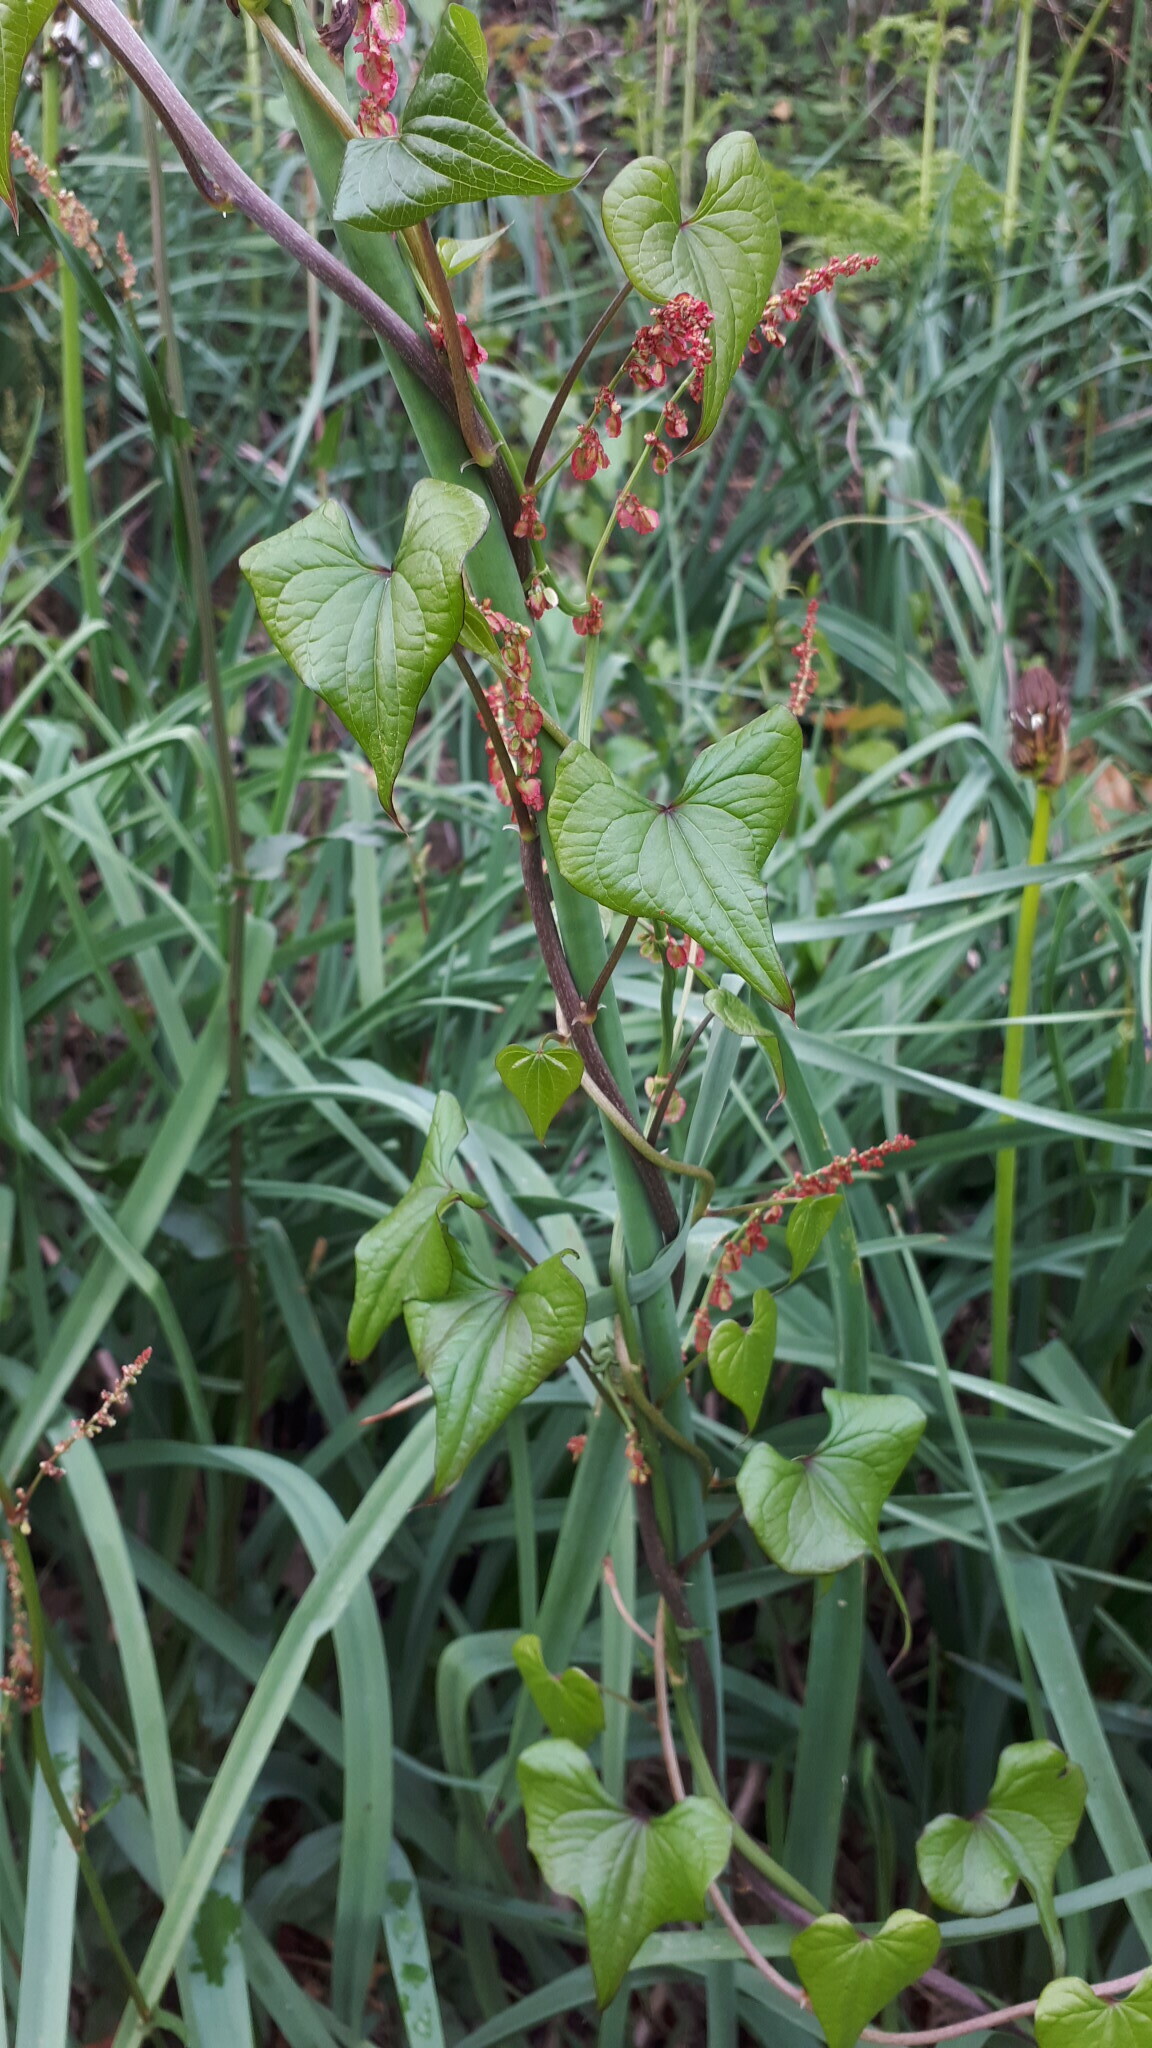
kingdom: Plantae
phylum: Tracheophyta
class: Liliopsida
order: Dioscoreales
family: Dioscoreaceae
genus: Dioscorea
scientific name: Dioscorea communis
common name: Black-bindweed
